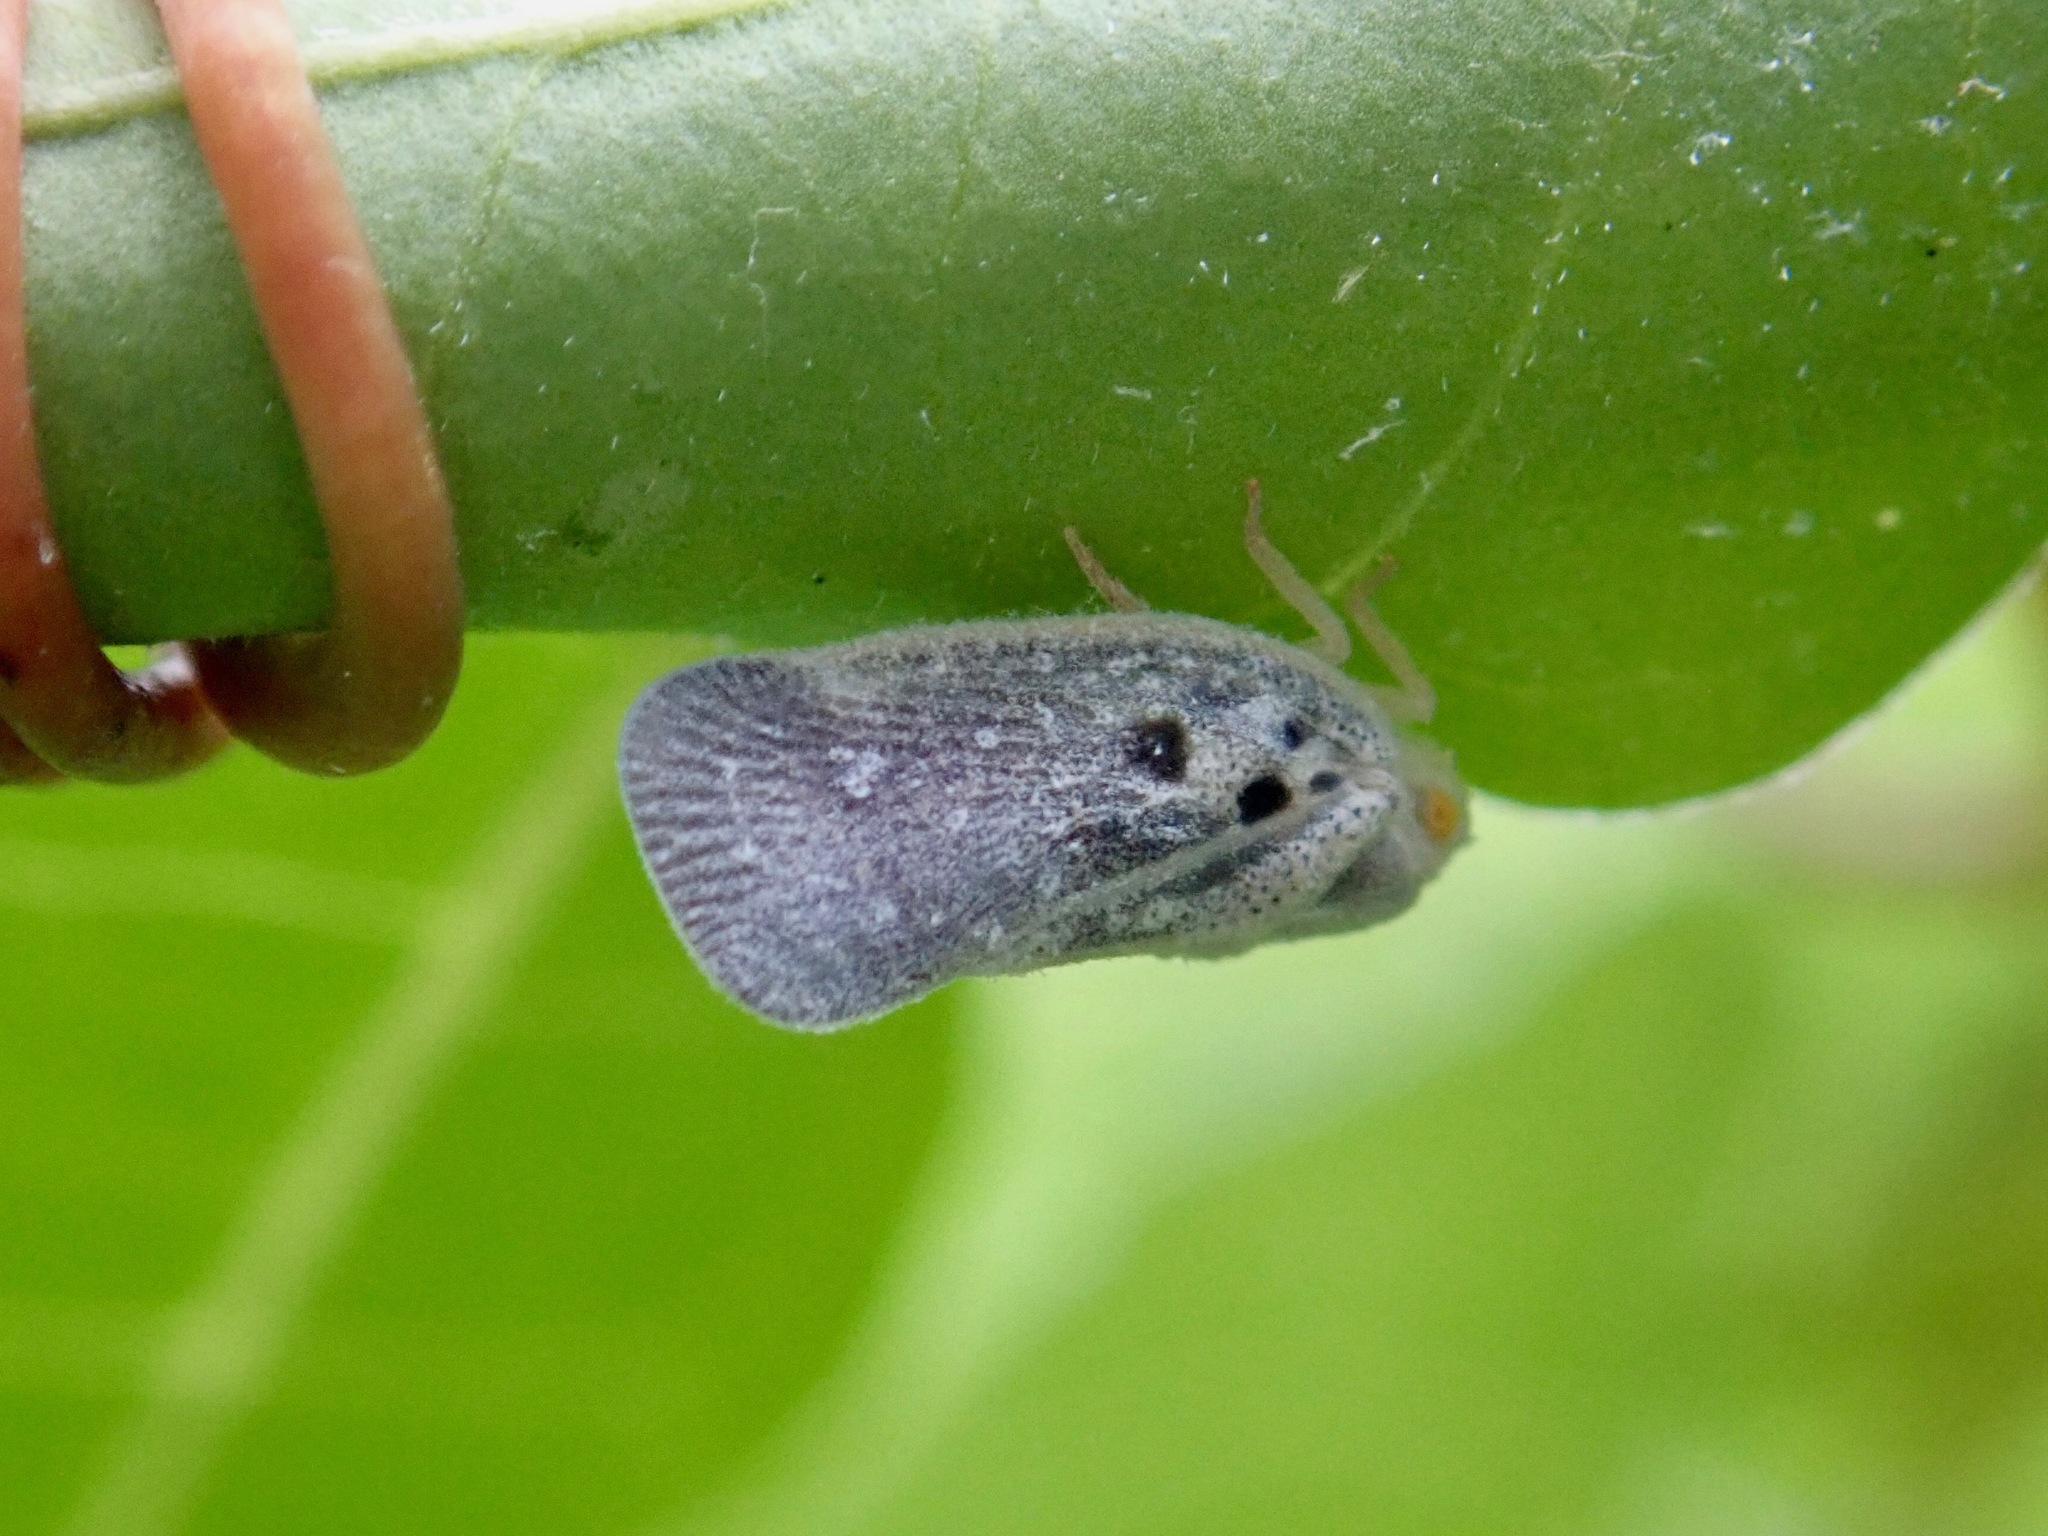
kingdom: Animalia
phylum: Arthropoda
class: Insecta
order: Hemiptera
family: Flatidae
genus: Metcalfa
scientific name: Metcalfa pruinosa
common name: Citrus flatid planthopper
